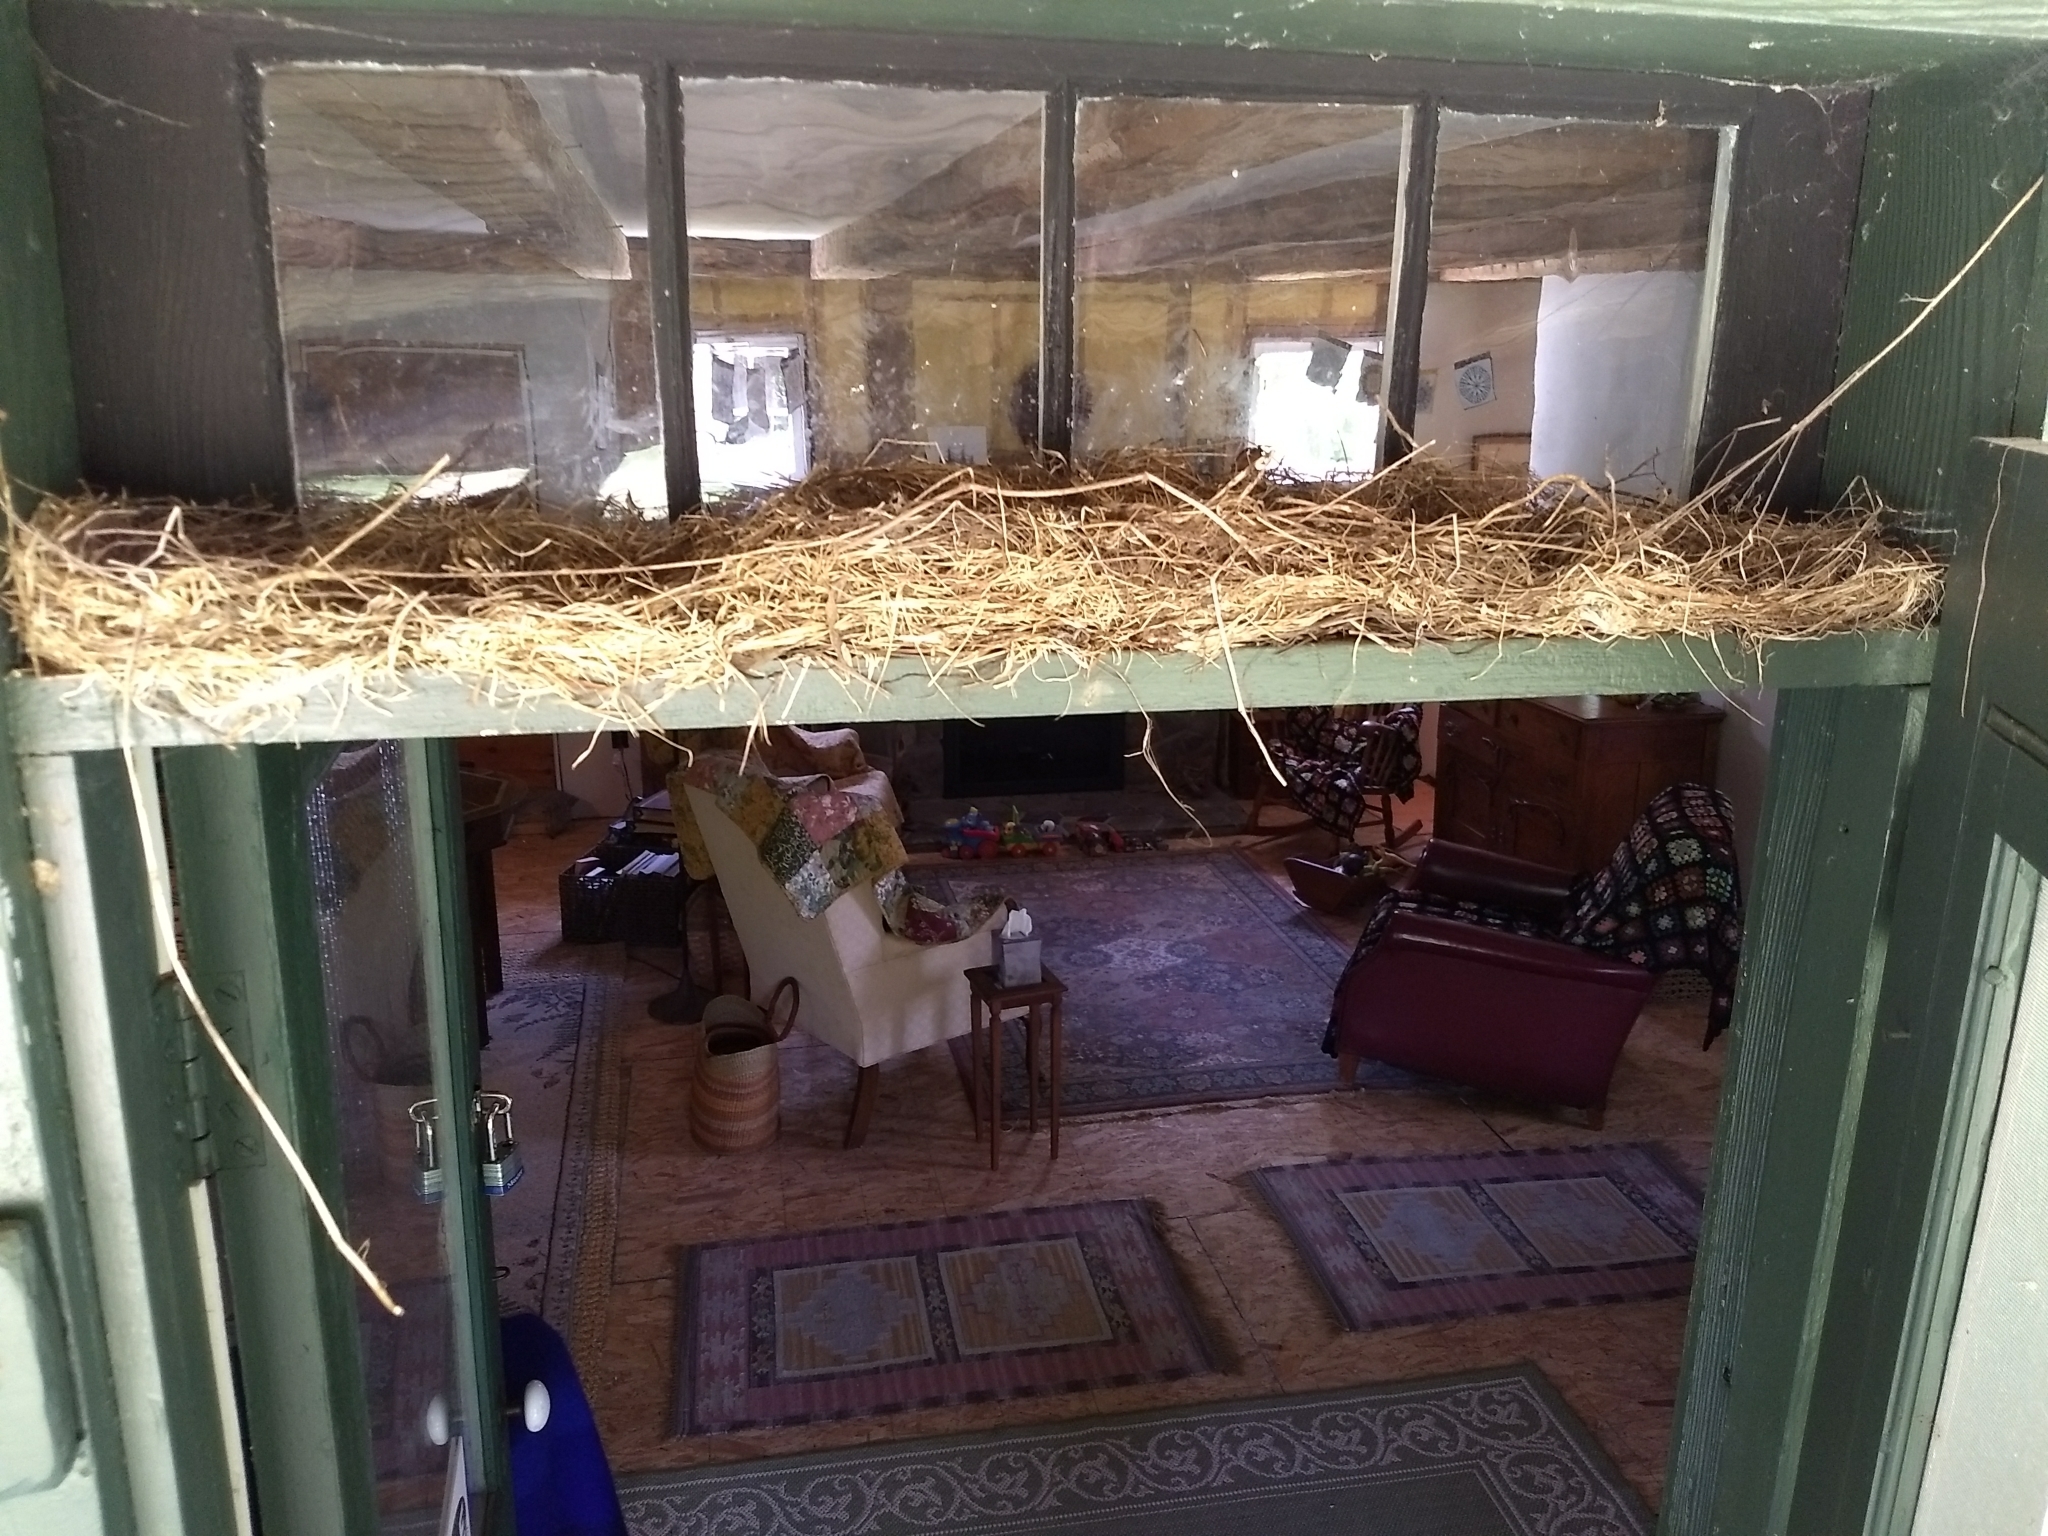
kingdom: Animalia
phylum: Chordata
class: Aves
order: Passeriformes
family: Turdidae
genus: Turdus
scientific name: Turdus migratorius
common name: American robin
